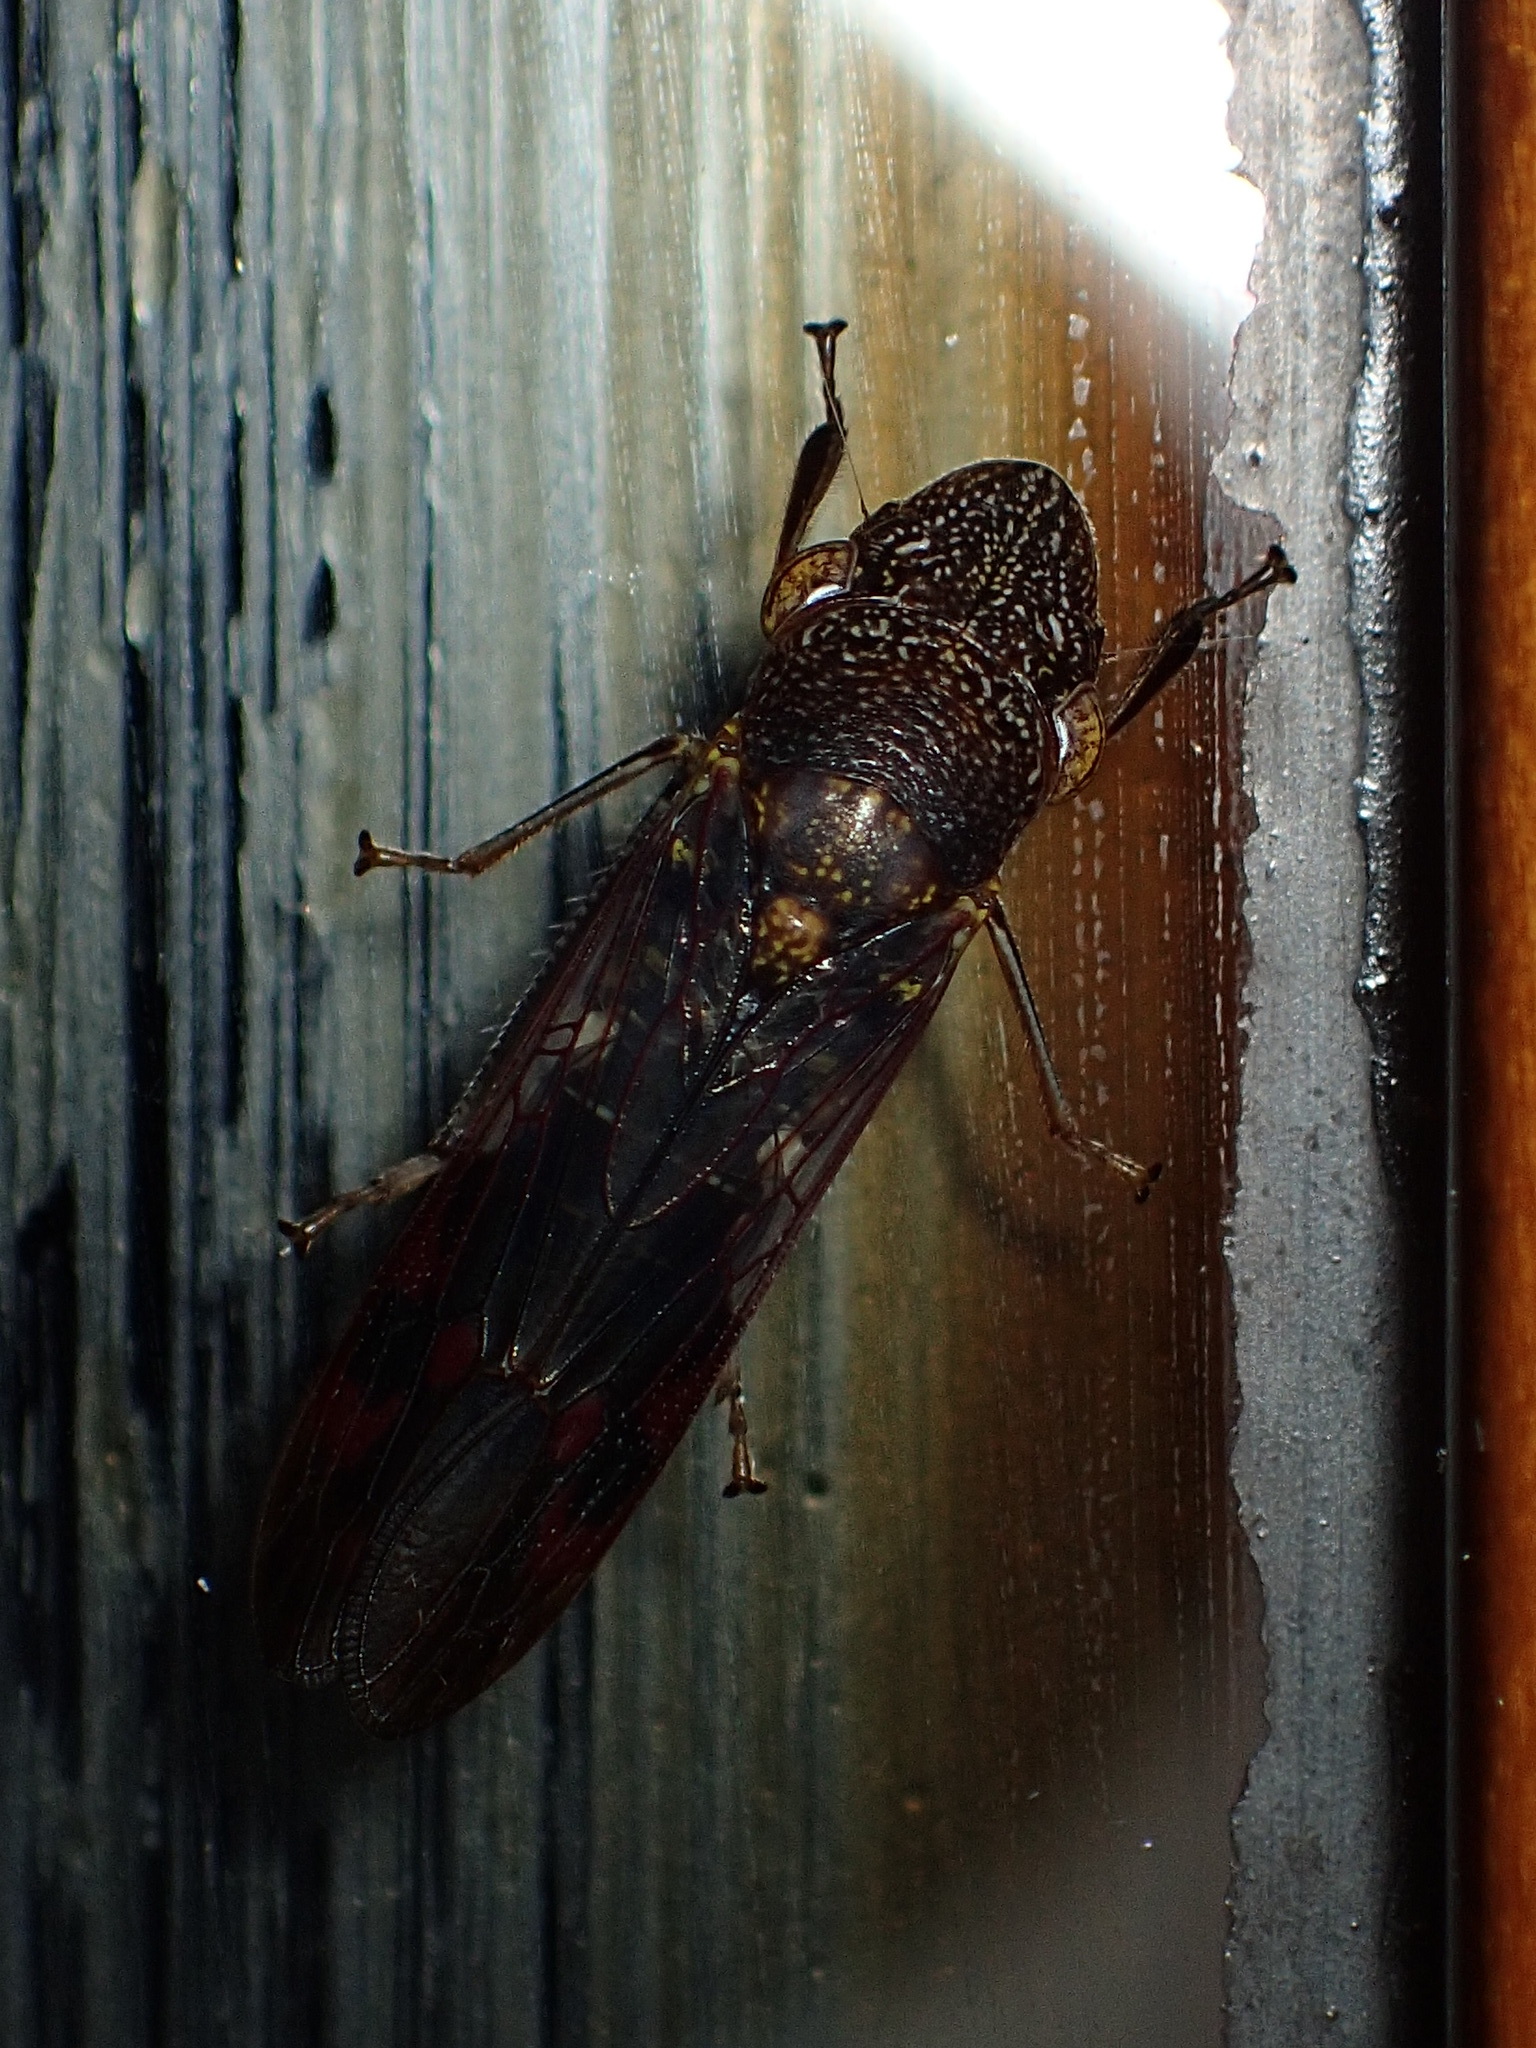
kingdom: Animalia
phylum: Arthropoda
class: Insecta
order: Hemiptera
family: Cicadellidae
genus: Homalodisca
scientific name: Homalodisca vitripennis
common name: Glassy-winged sharpshooter
